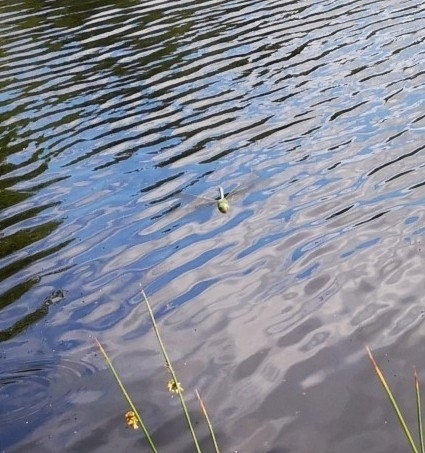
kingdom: Animalia
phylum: Arthropoda
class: Insecta
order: Odonata
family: Aeshnidae
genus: Anax
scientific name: Anax imperator
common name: Emperor dragonfly
